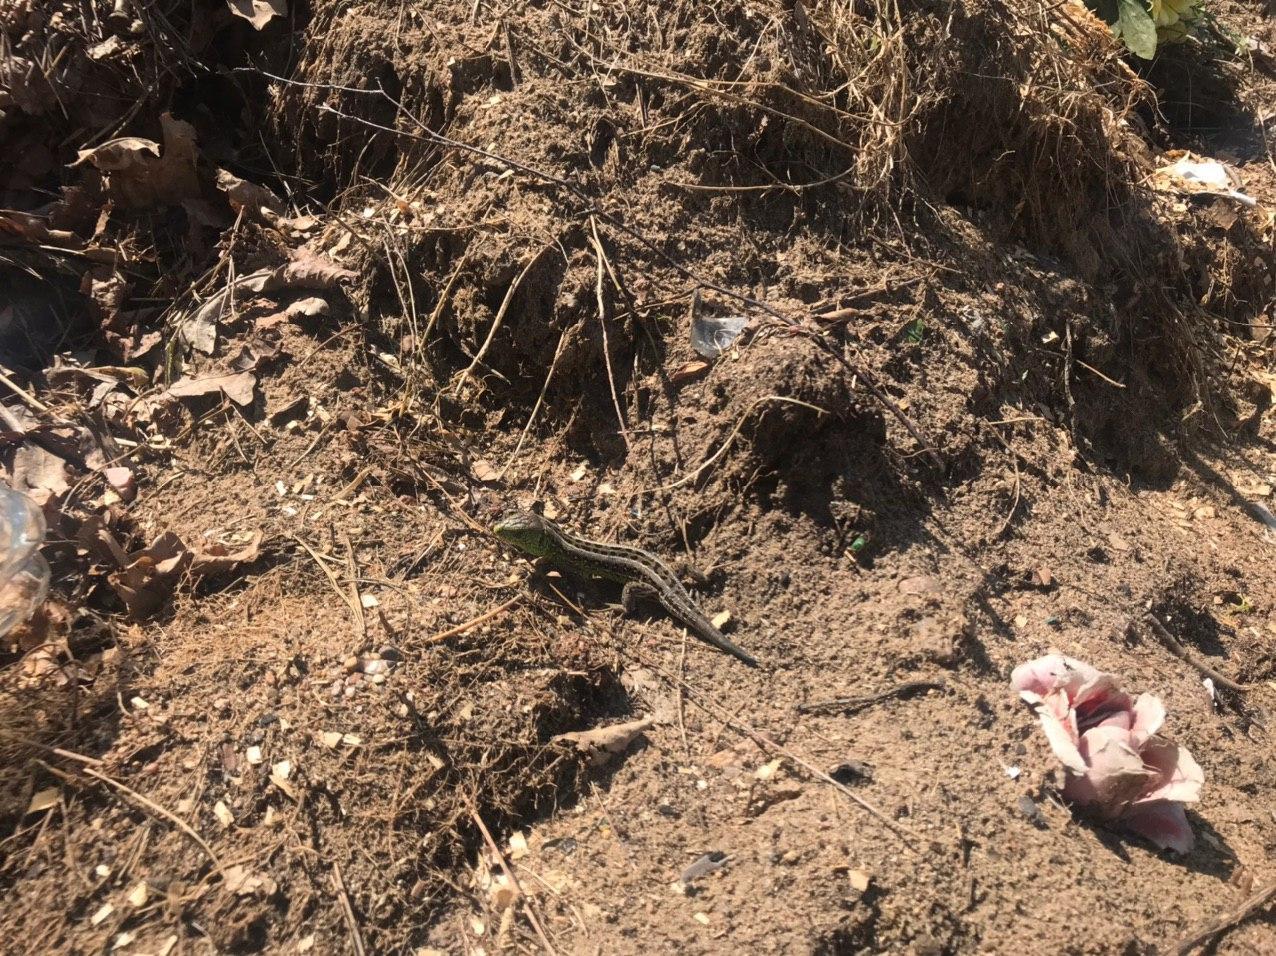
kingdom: Animalia
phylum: Chordata
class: Squamata
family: Lacertidae
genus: Lacerta
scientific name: Lacerta agilis
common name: Sand lizard
